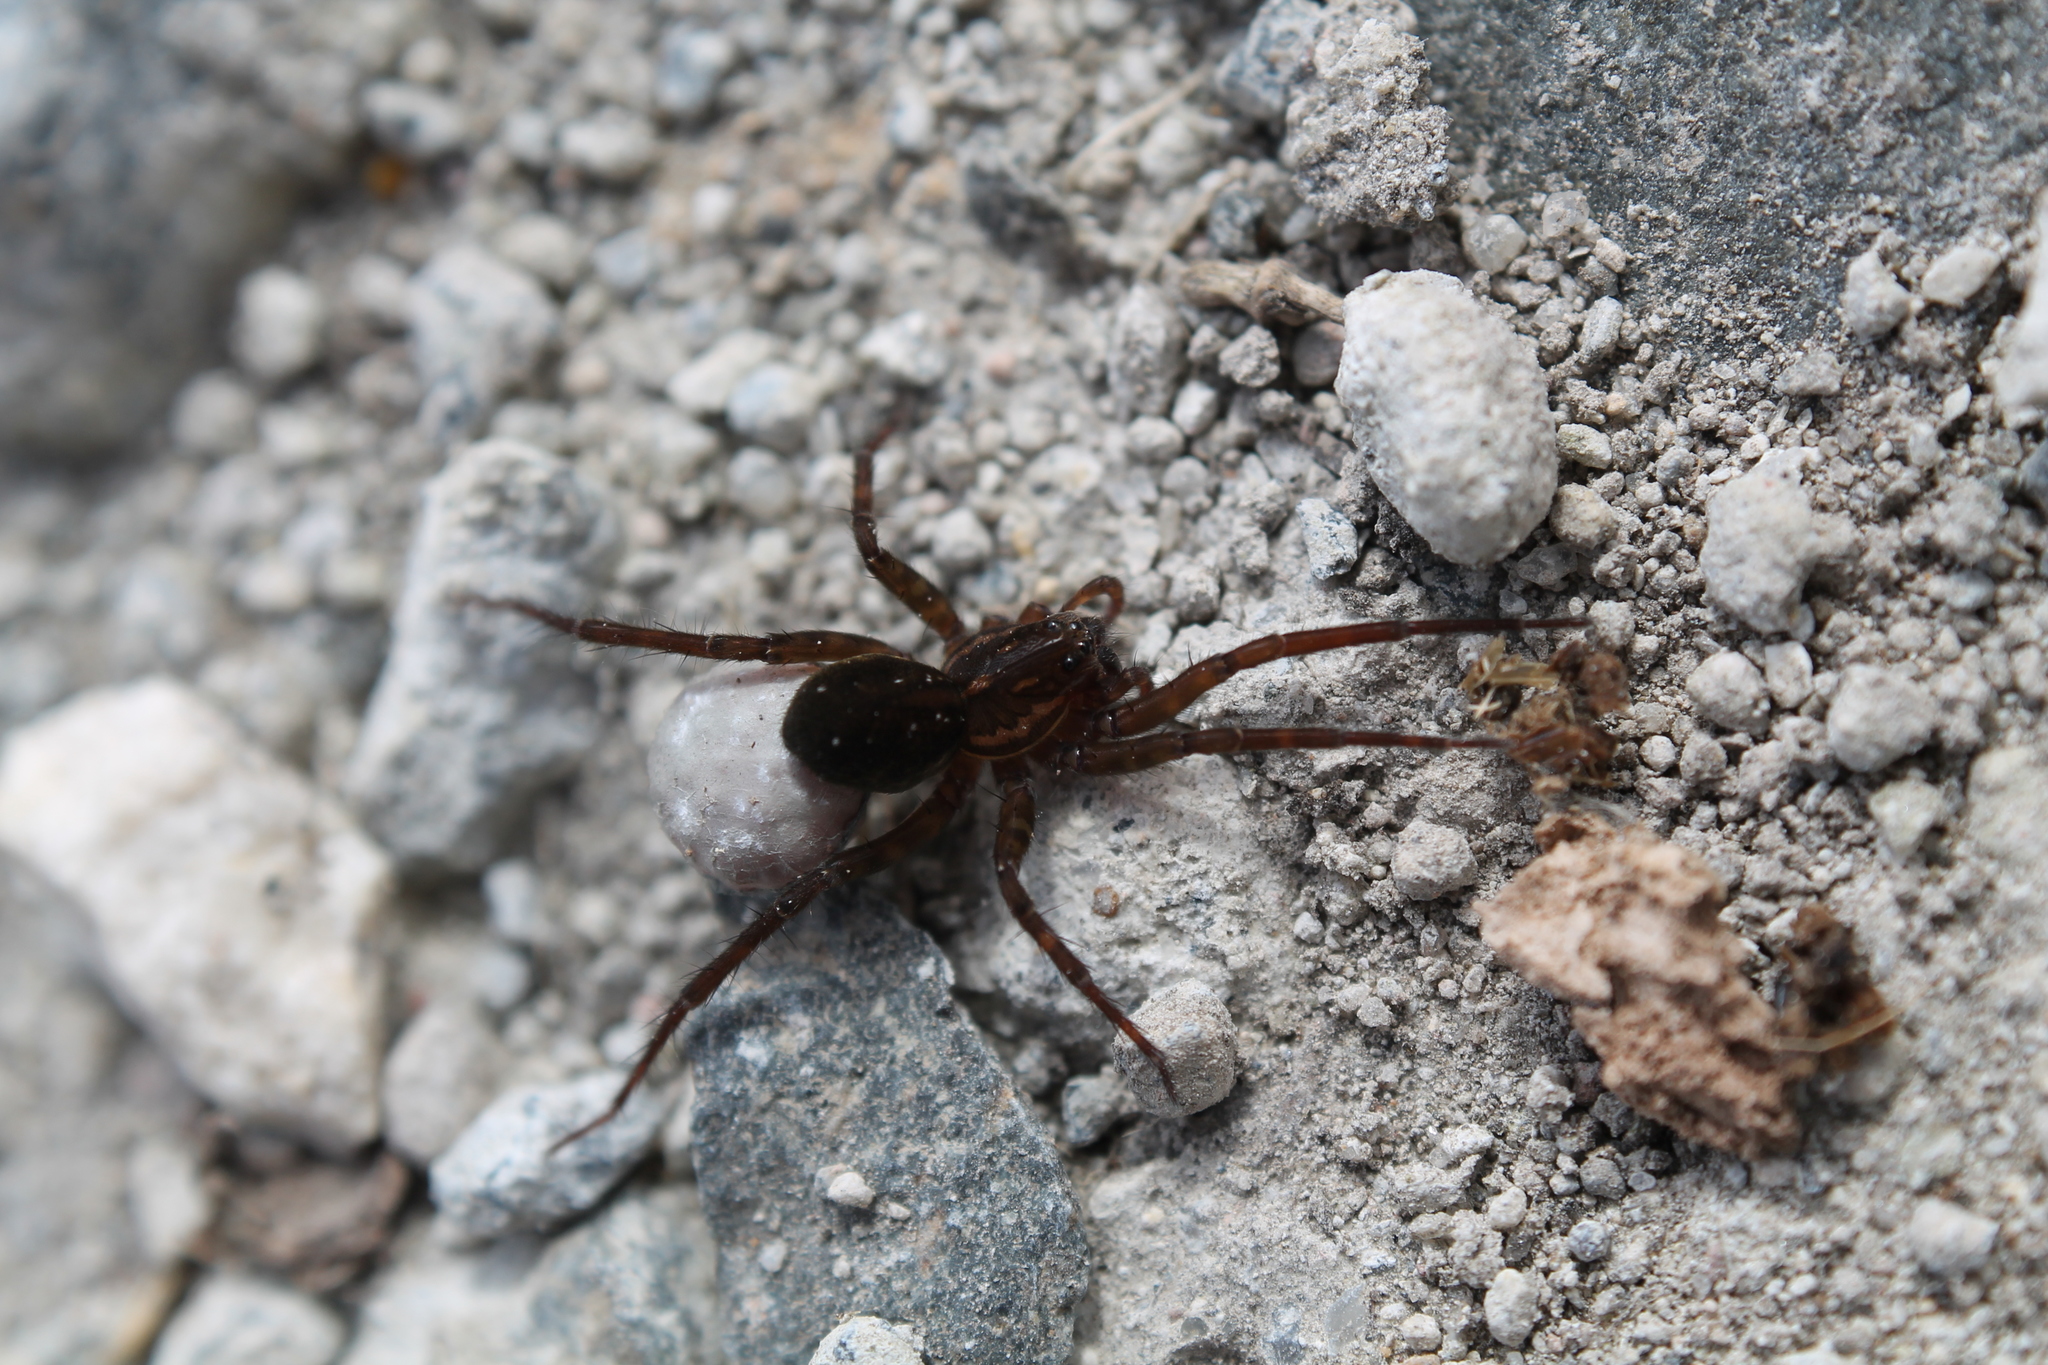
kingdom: Animalia
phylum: Arthropoda
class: Arachnida
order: Araneae
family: Lycosidae
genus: Allotrochosina
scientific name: Allotrochosina schauinslandi
